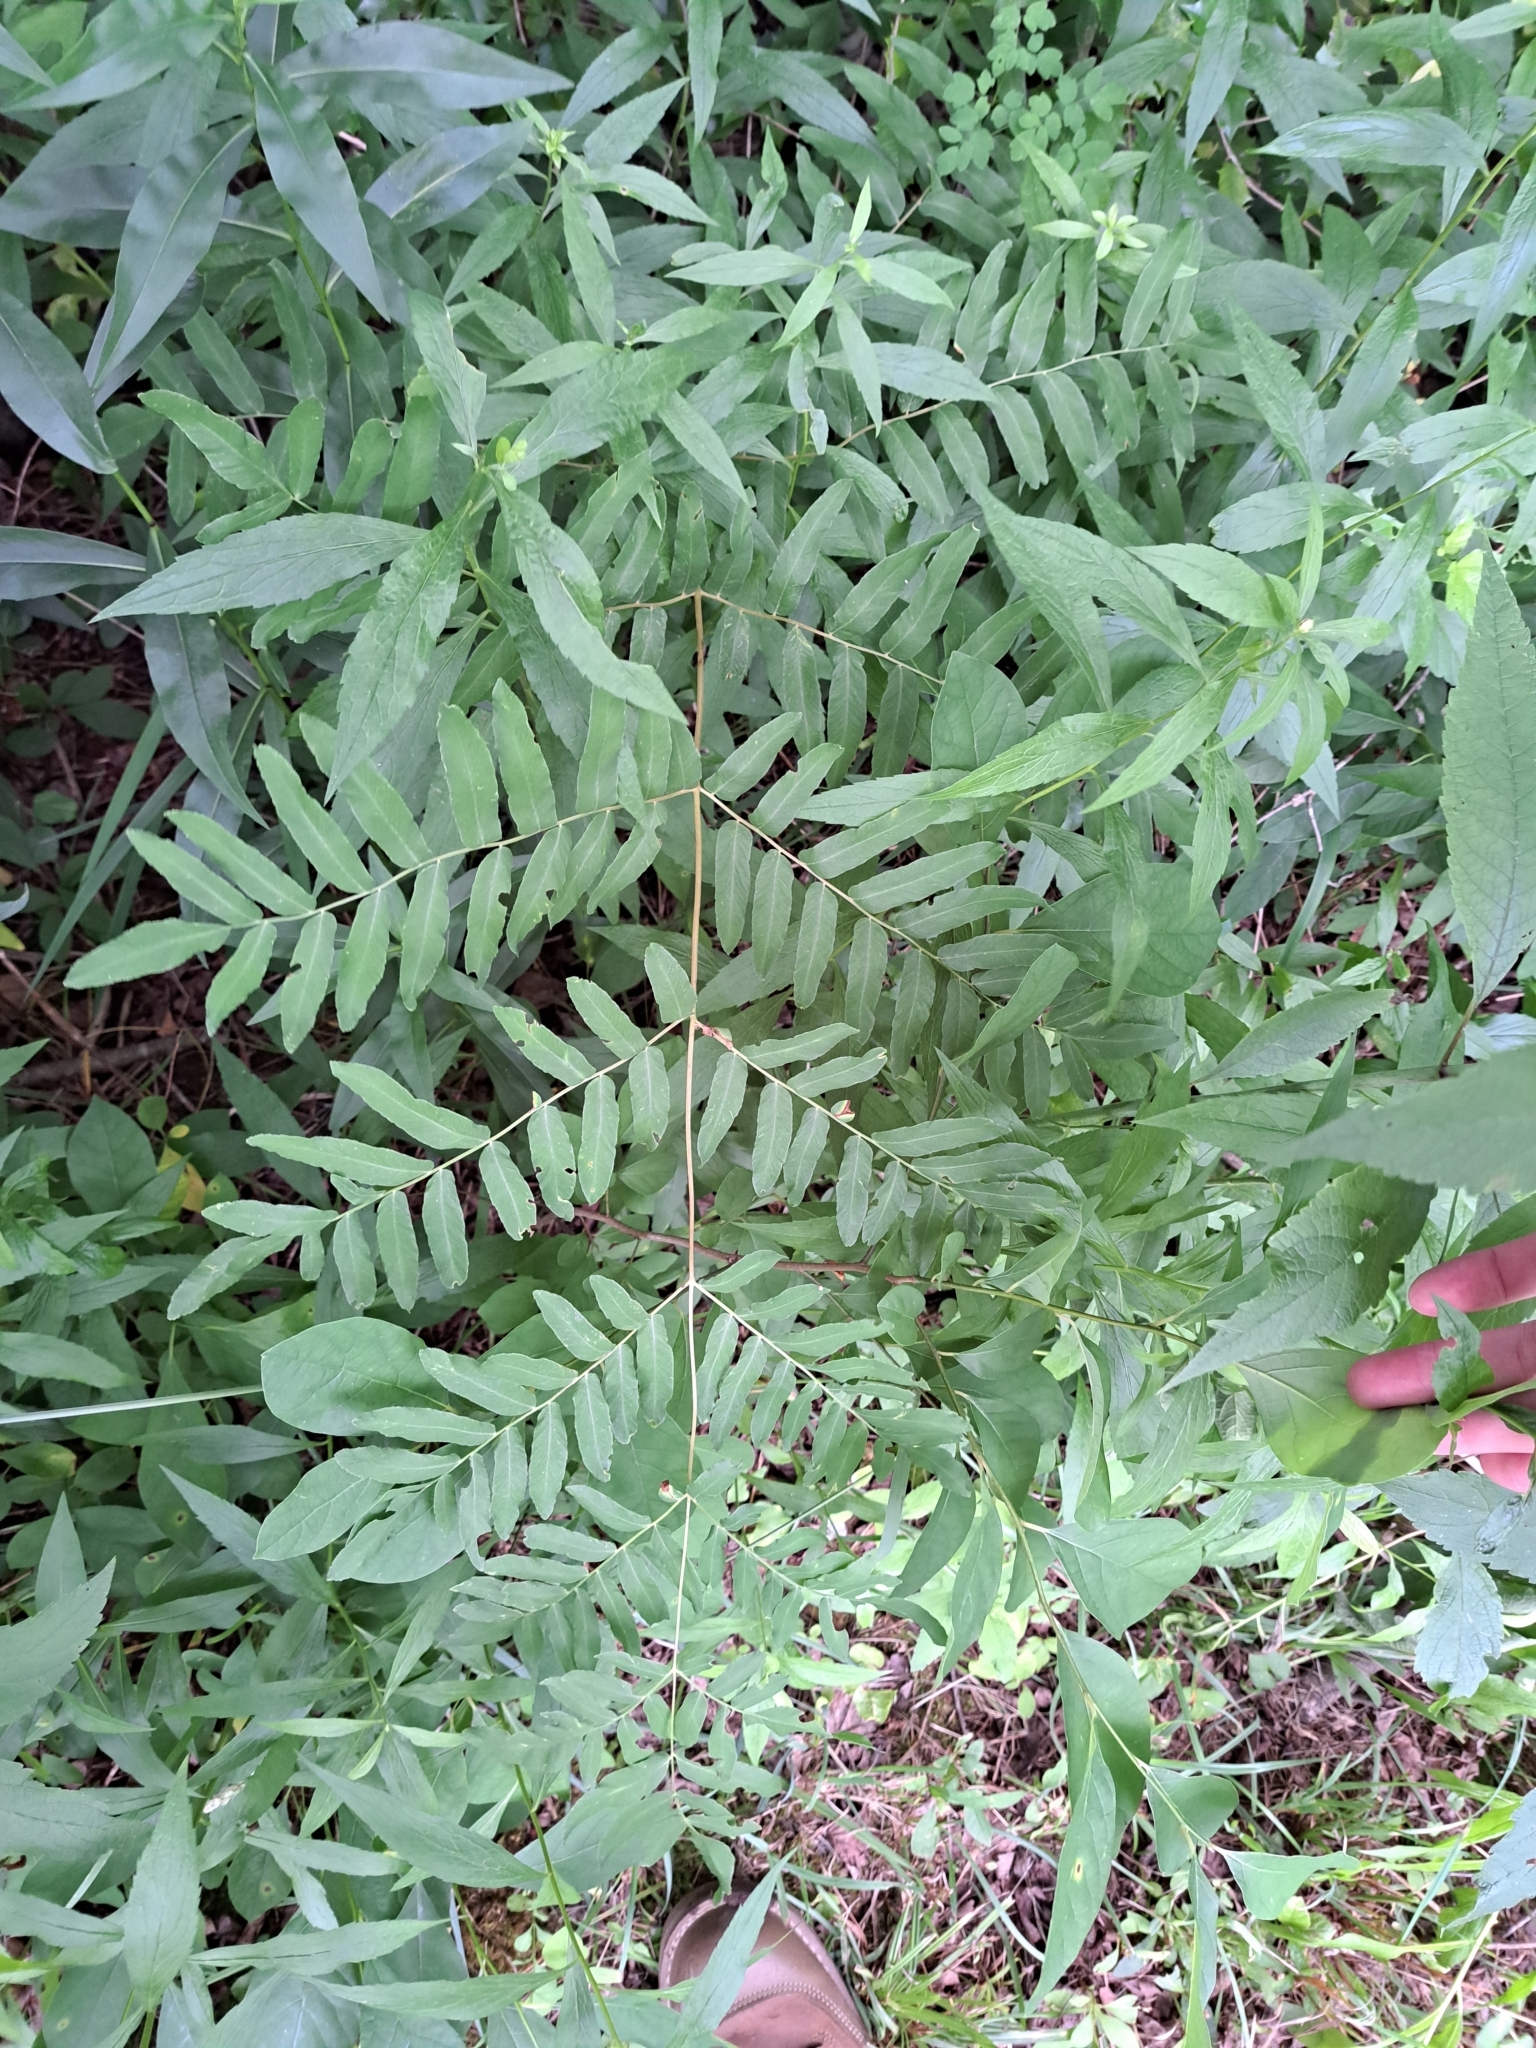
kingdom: Plantae
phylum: Tracheophyta
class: Polypodiopsida
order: Osmundales
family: Osmundaceae
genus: Osmunda
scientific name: Osmunda spectabilis
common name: American royal fern
